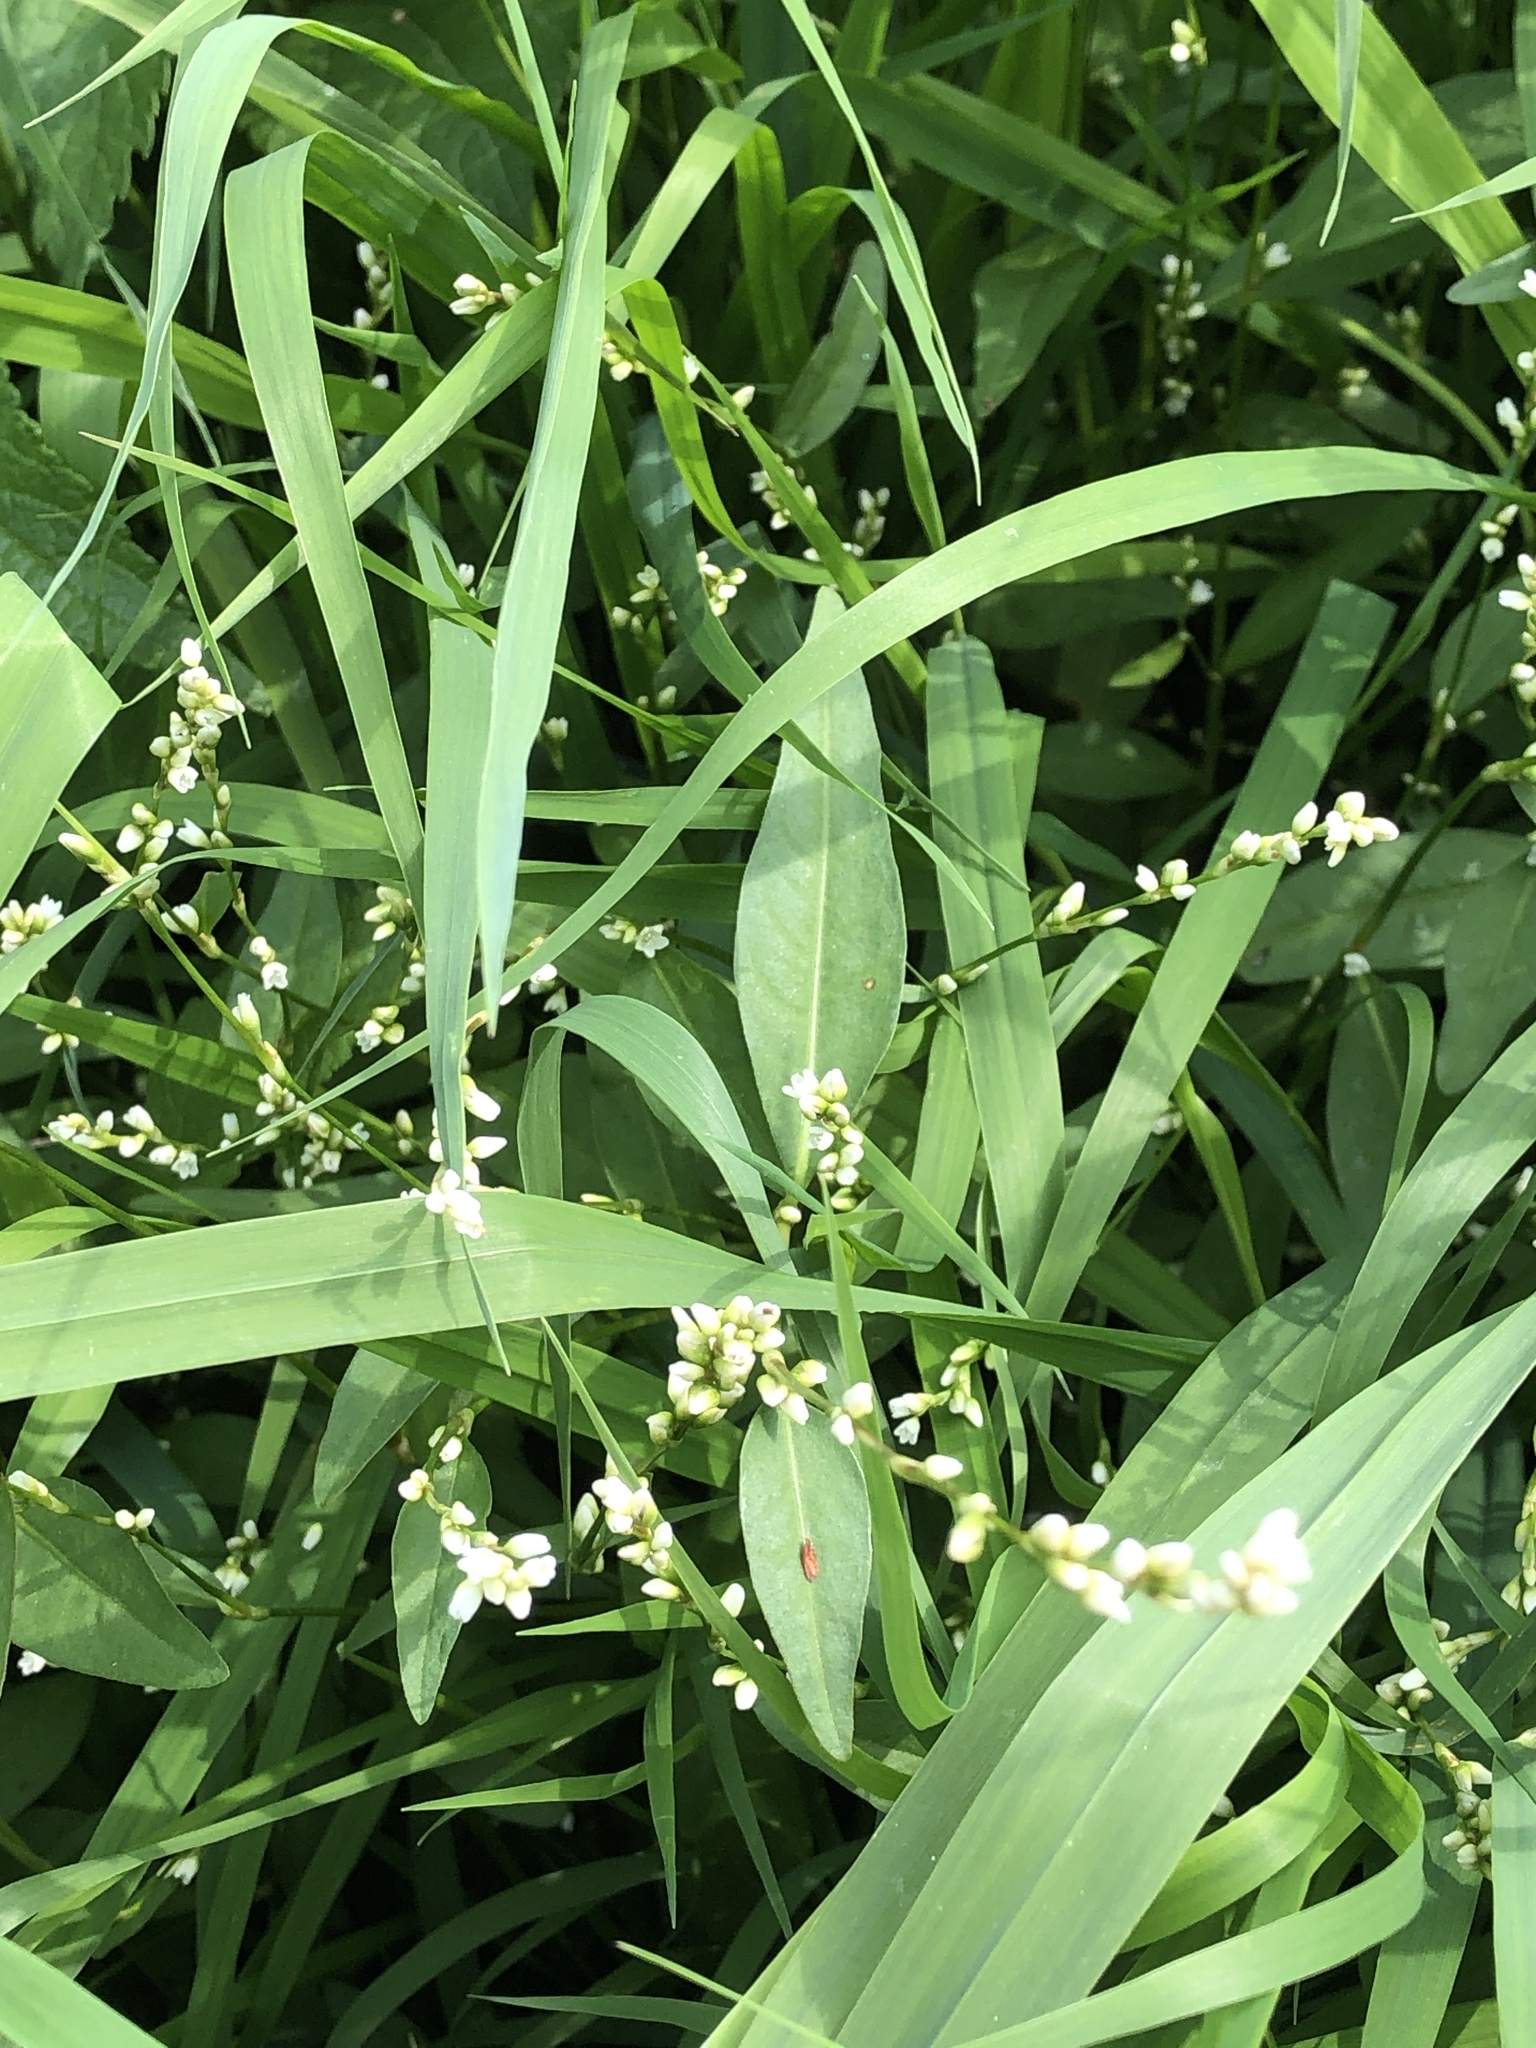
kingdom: Plantae
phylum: Tracheophyta
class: Magnoliopsida
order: Caryophyllales
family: Polygonaceae
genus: Persicaria
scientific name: Persicaria punctata
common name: Dotted smartweed
